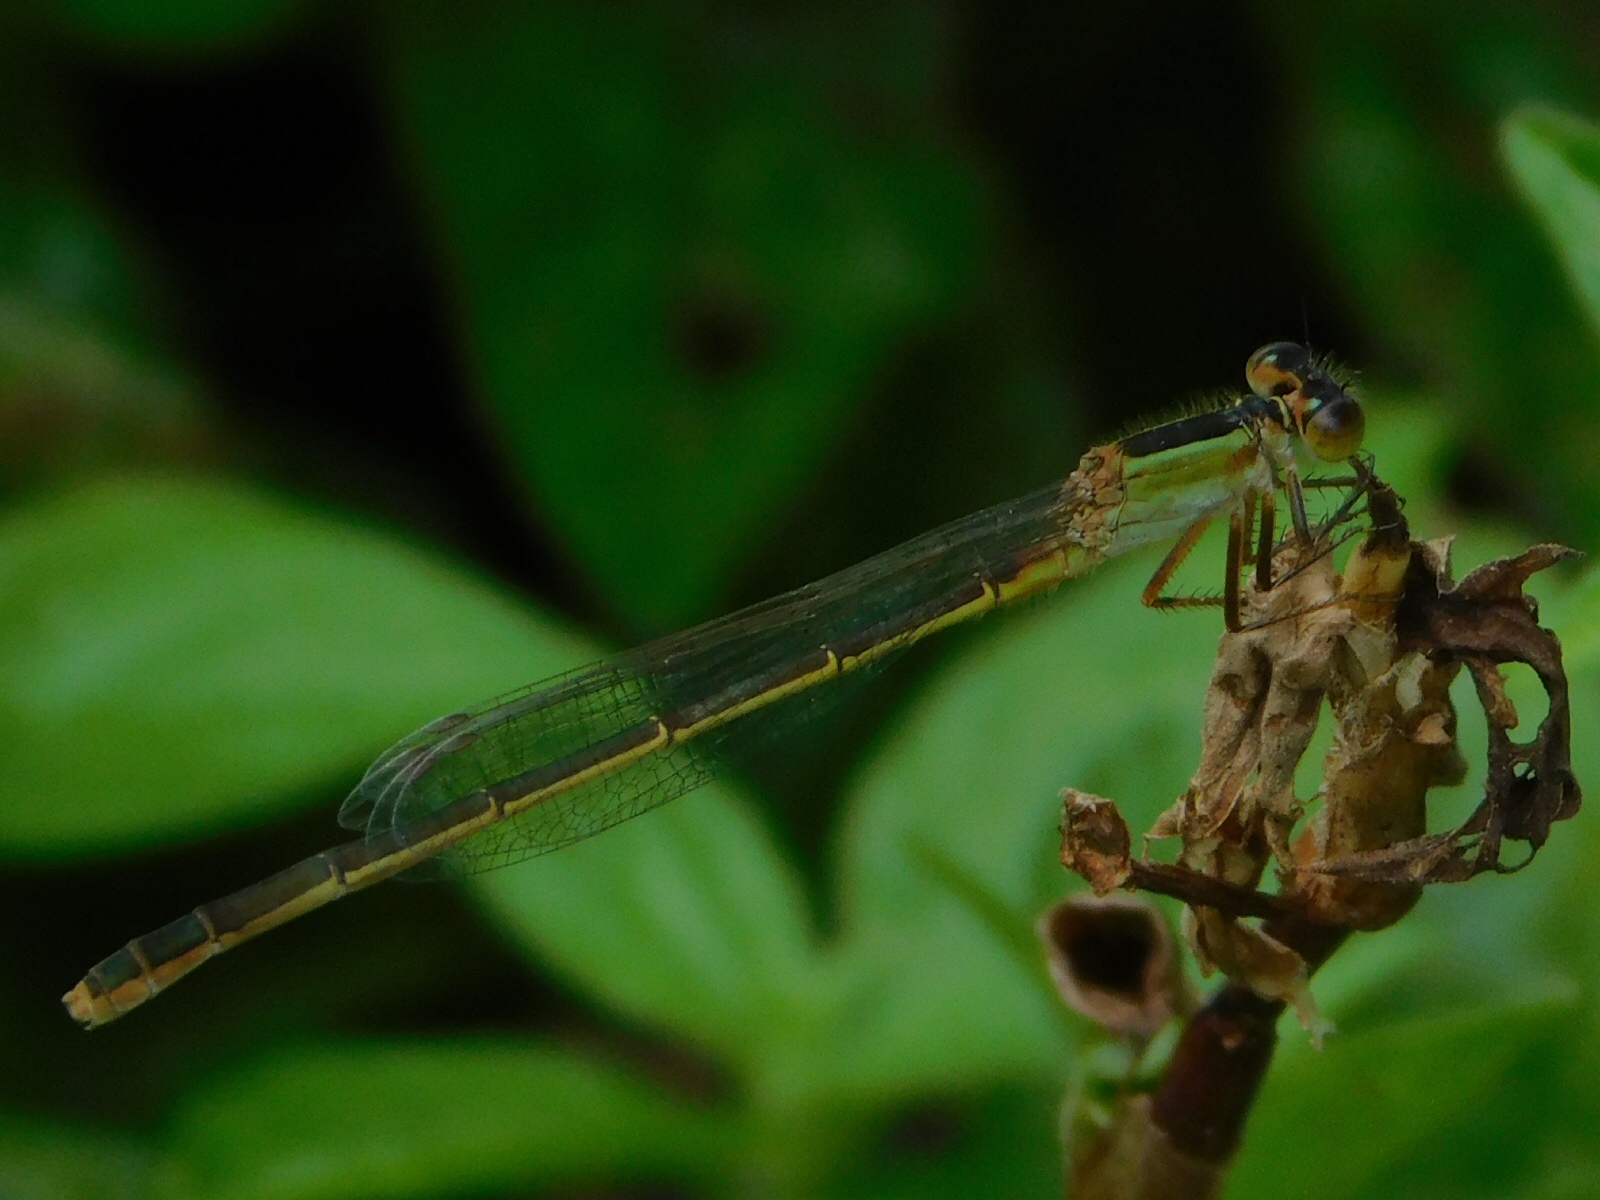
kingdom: Animalia
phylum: Arthropoda
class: Insecta
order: Odonata
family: Coenagrionidae
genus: Ischnura
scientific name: Ischnura ramburii
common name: Rambur's forktail
